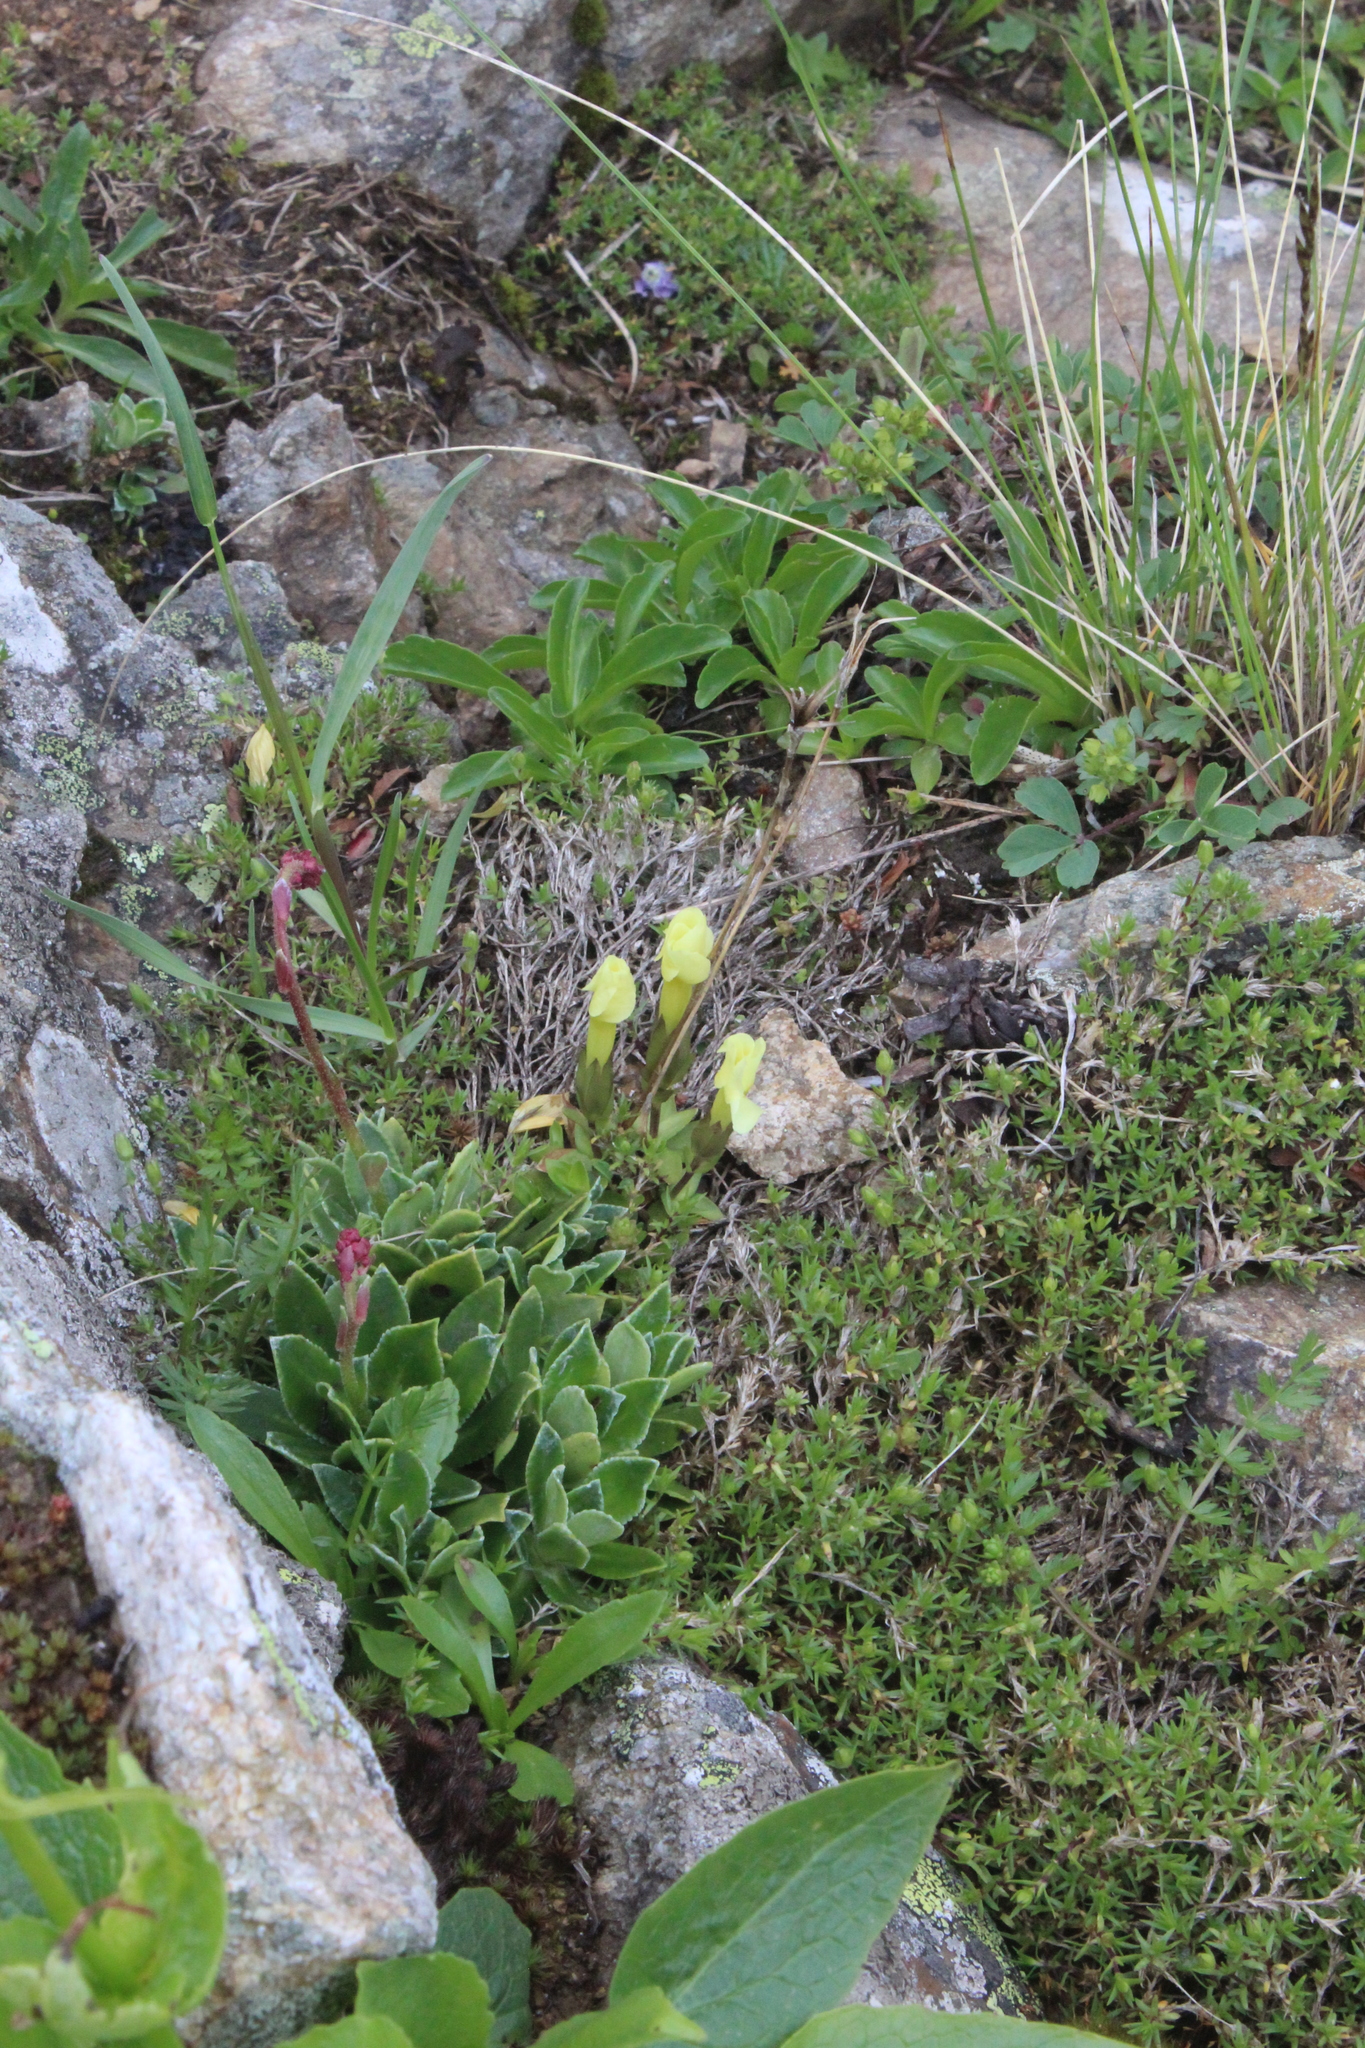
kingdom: Plantae
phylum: Tracheophyta
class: Magnoliopsida
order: Gentianales
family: Gentianaceae
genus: Gentiana
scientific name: Gentiana verna
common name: Spring gentian
